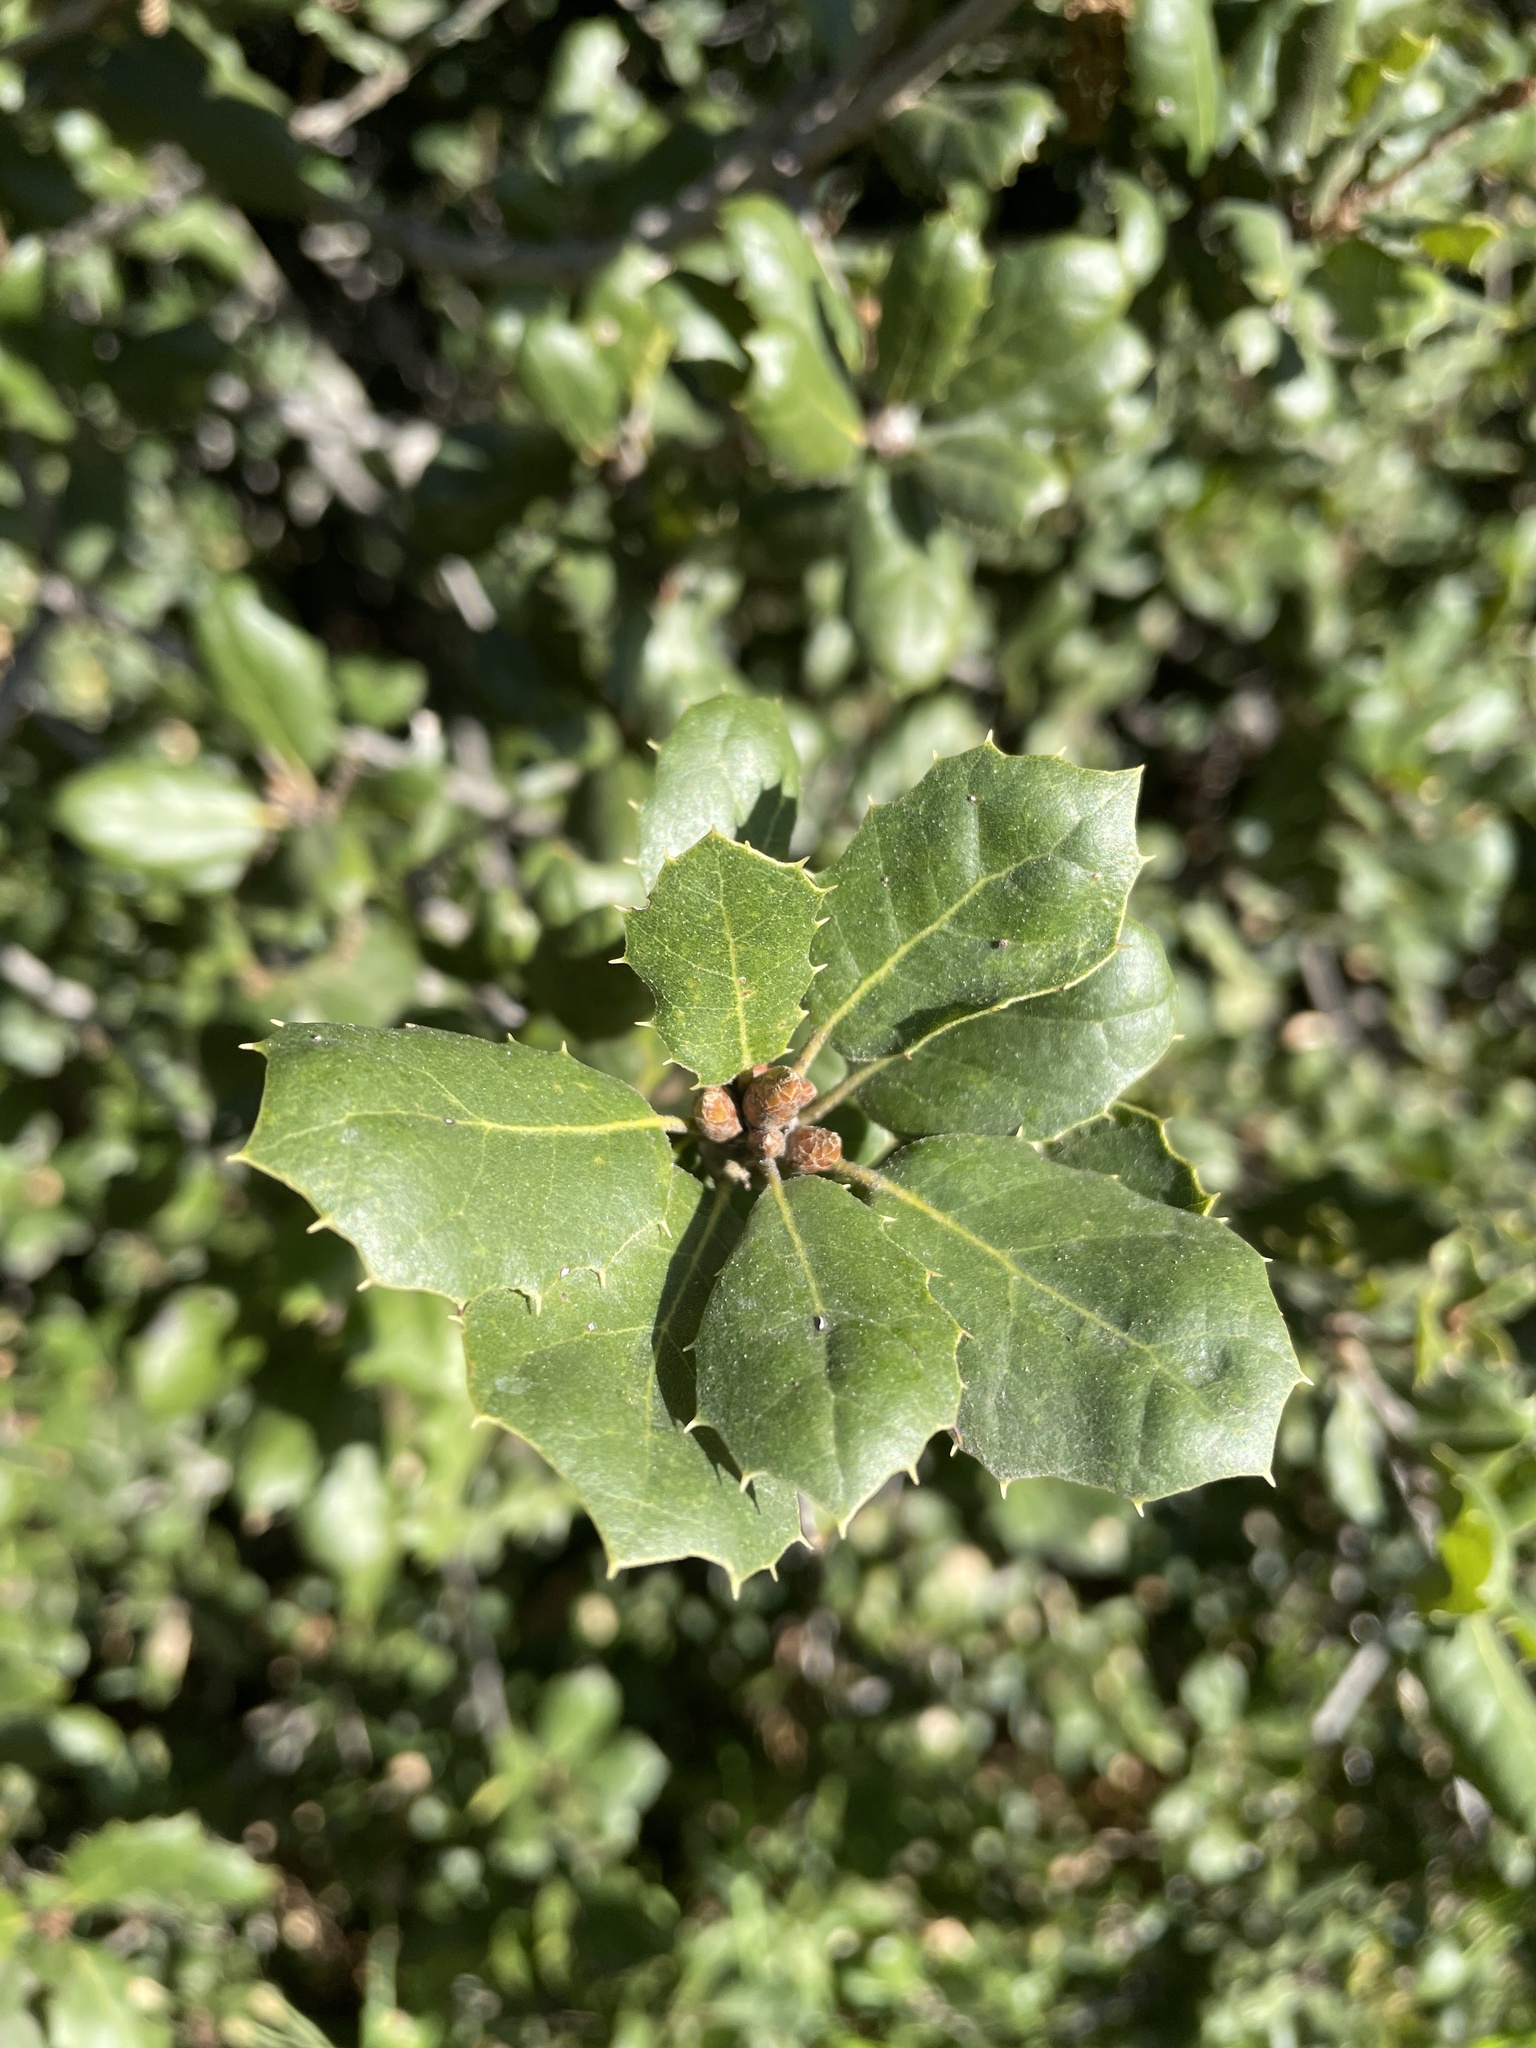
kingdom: Plantae
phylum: Tracheophyta
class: Magnoliopsida
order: Fagales
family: Fagaceae
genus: Quercus
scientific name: Quercus agrifolia
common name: California live oak
